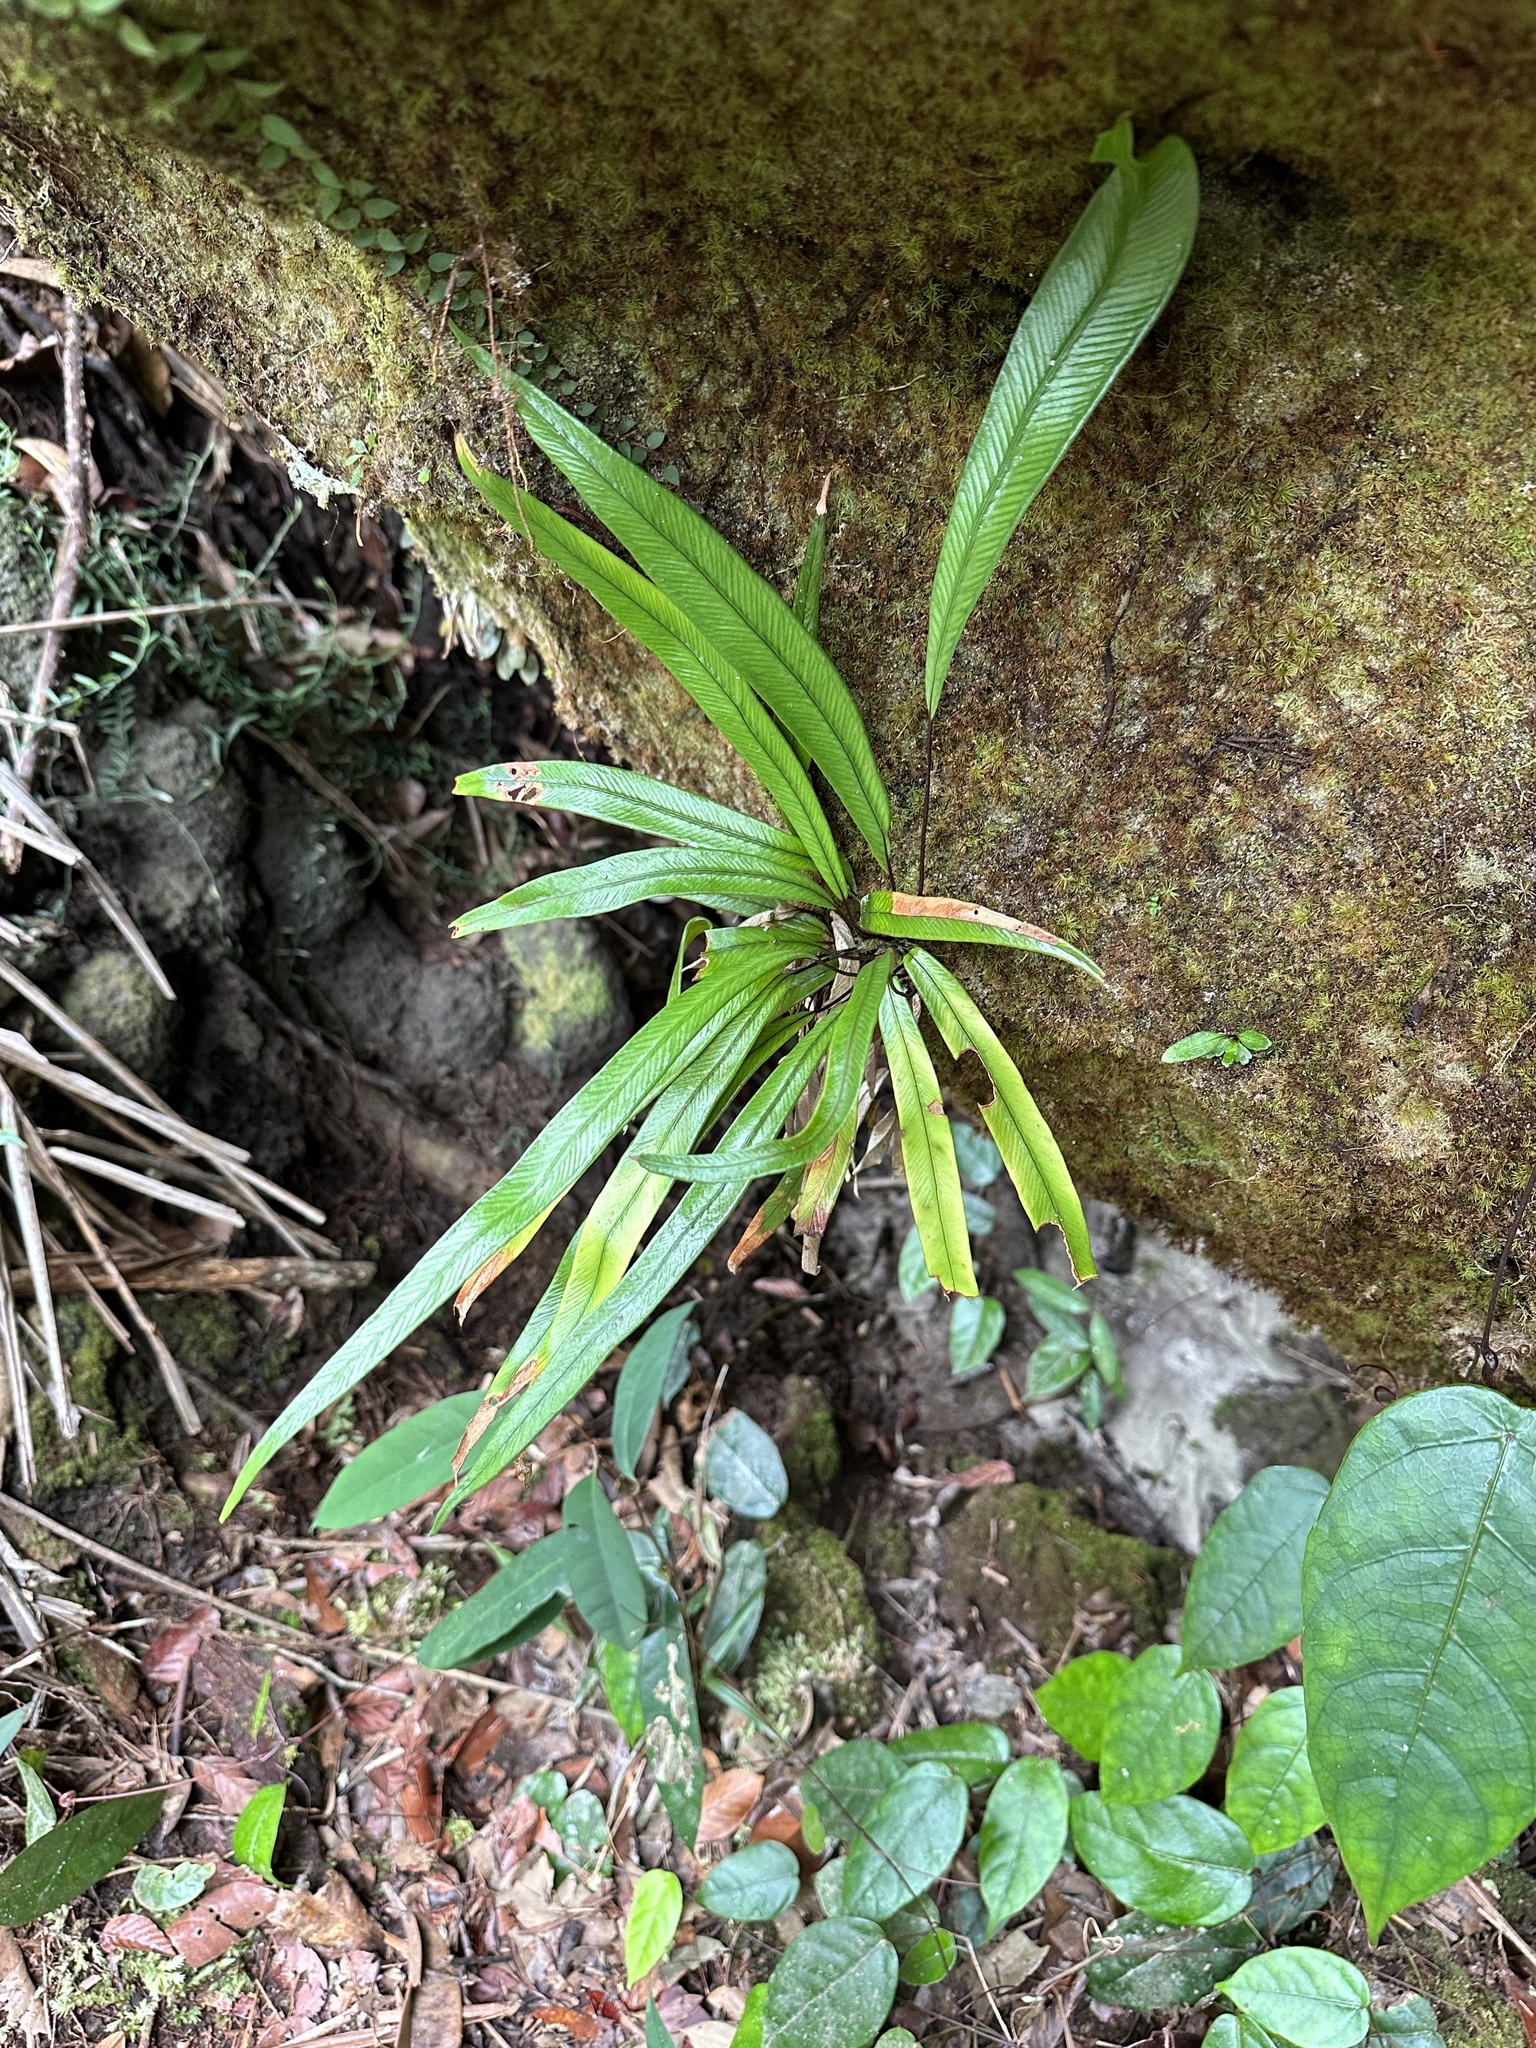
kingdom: Plantae
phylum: Tracheophyta
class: Polypodiopsida
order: Polypodiales
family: Pteridaceae
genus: Syngramma
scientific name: Syngramma lobbiana
